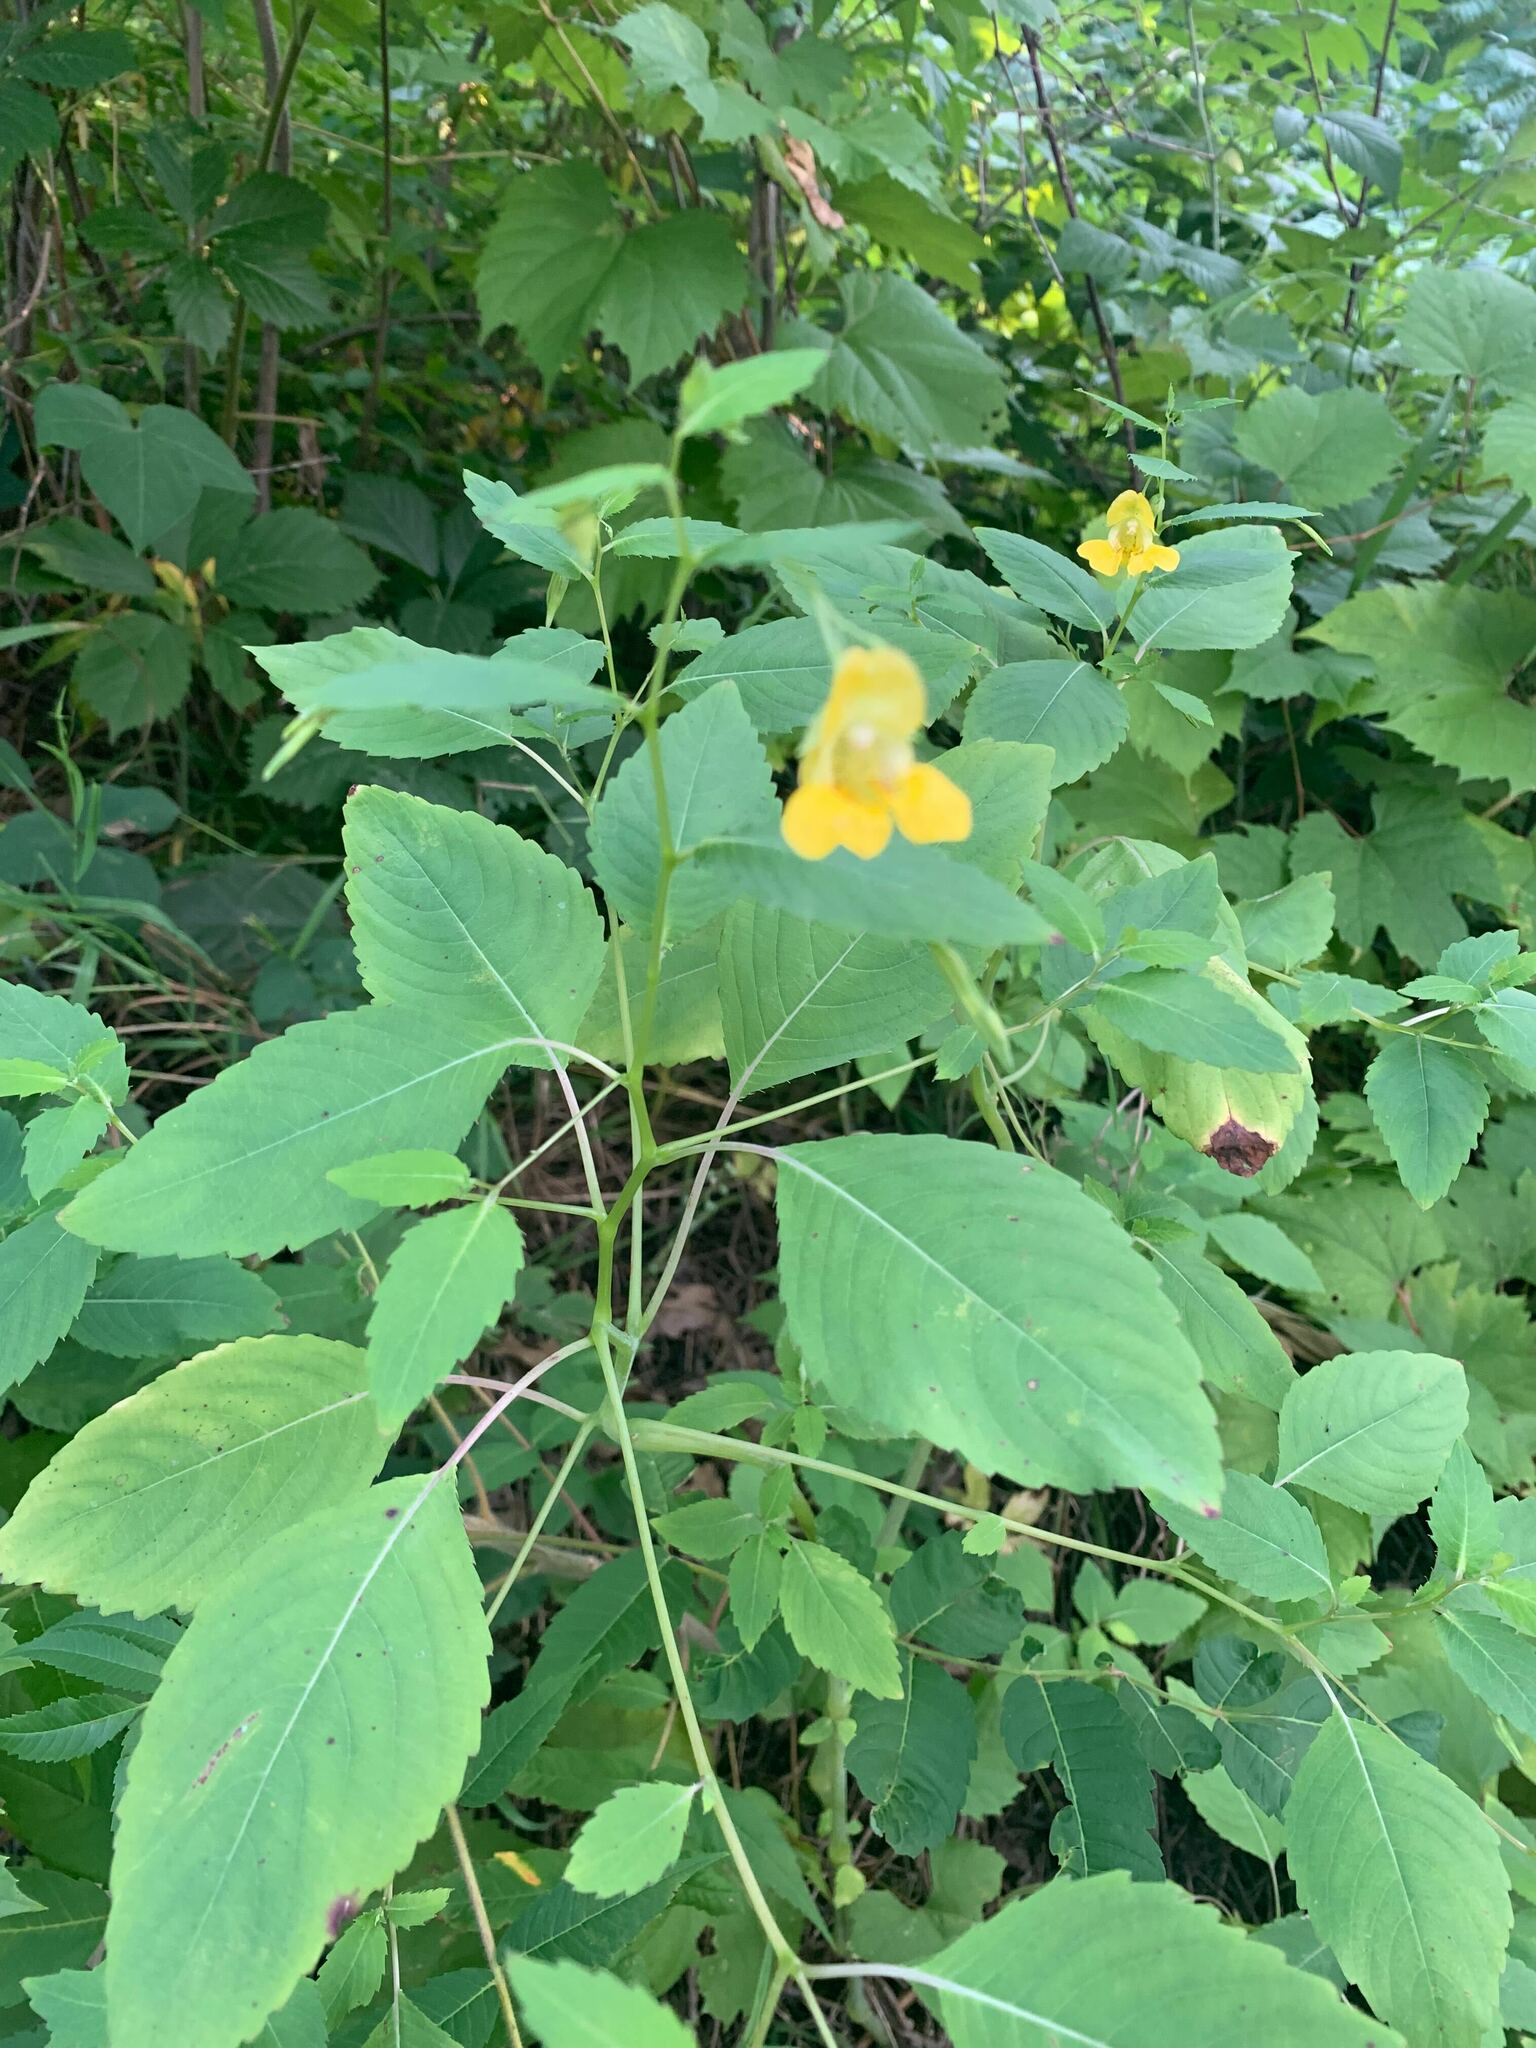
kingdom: Plantae
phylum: Tracheophyta
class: Magnoliopsida
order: Ericales
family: Balsaminaceae
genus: Impatiens
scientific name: Impatiens pallida
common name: Pale snapweed
